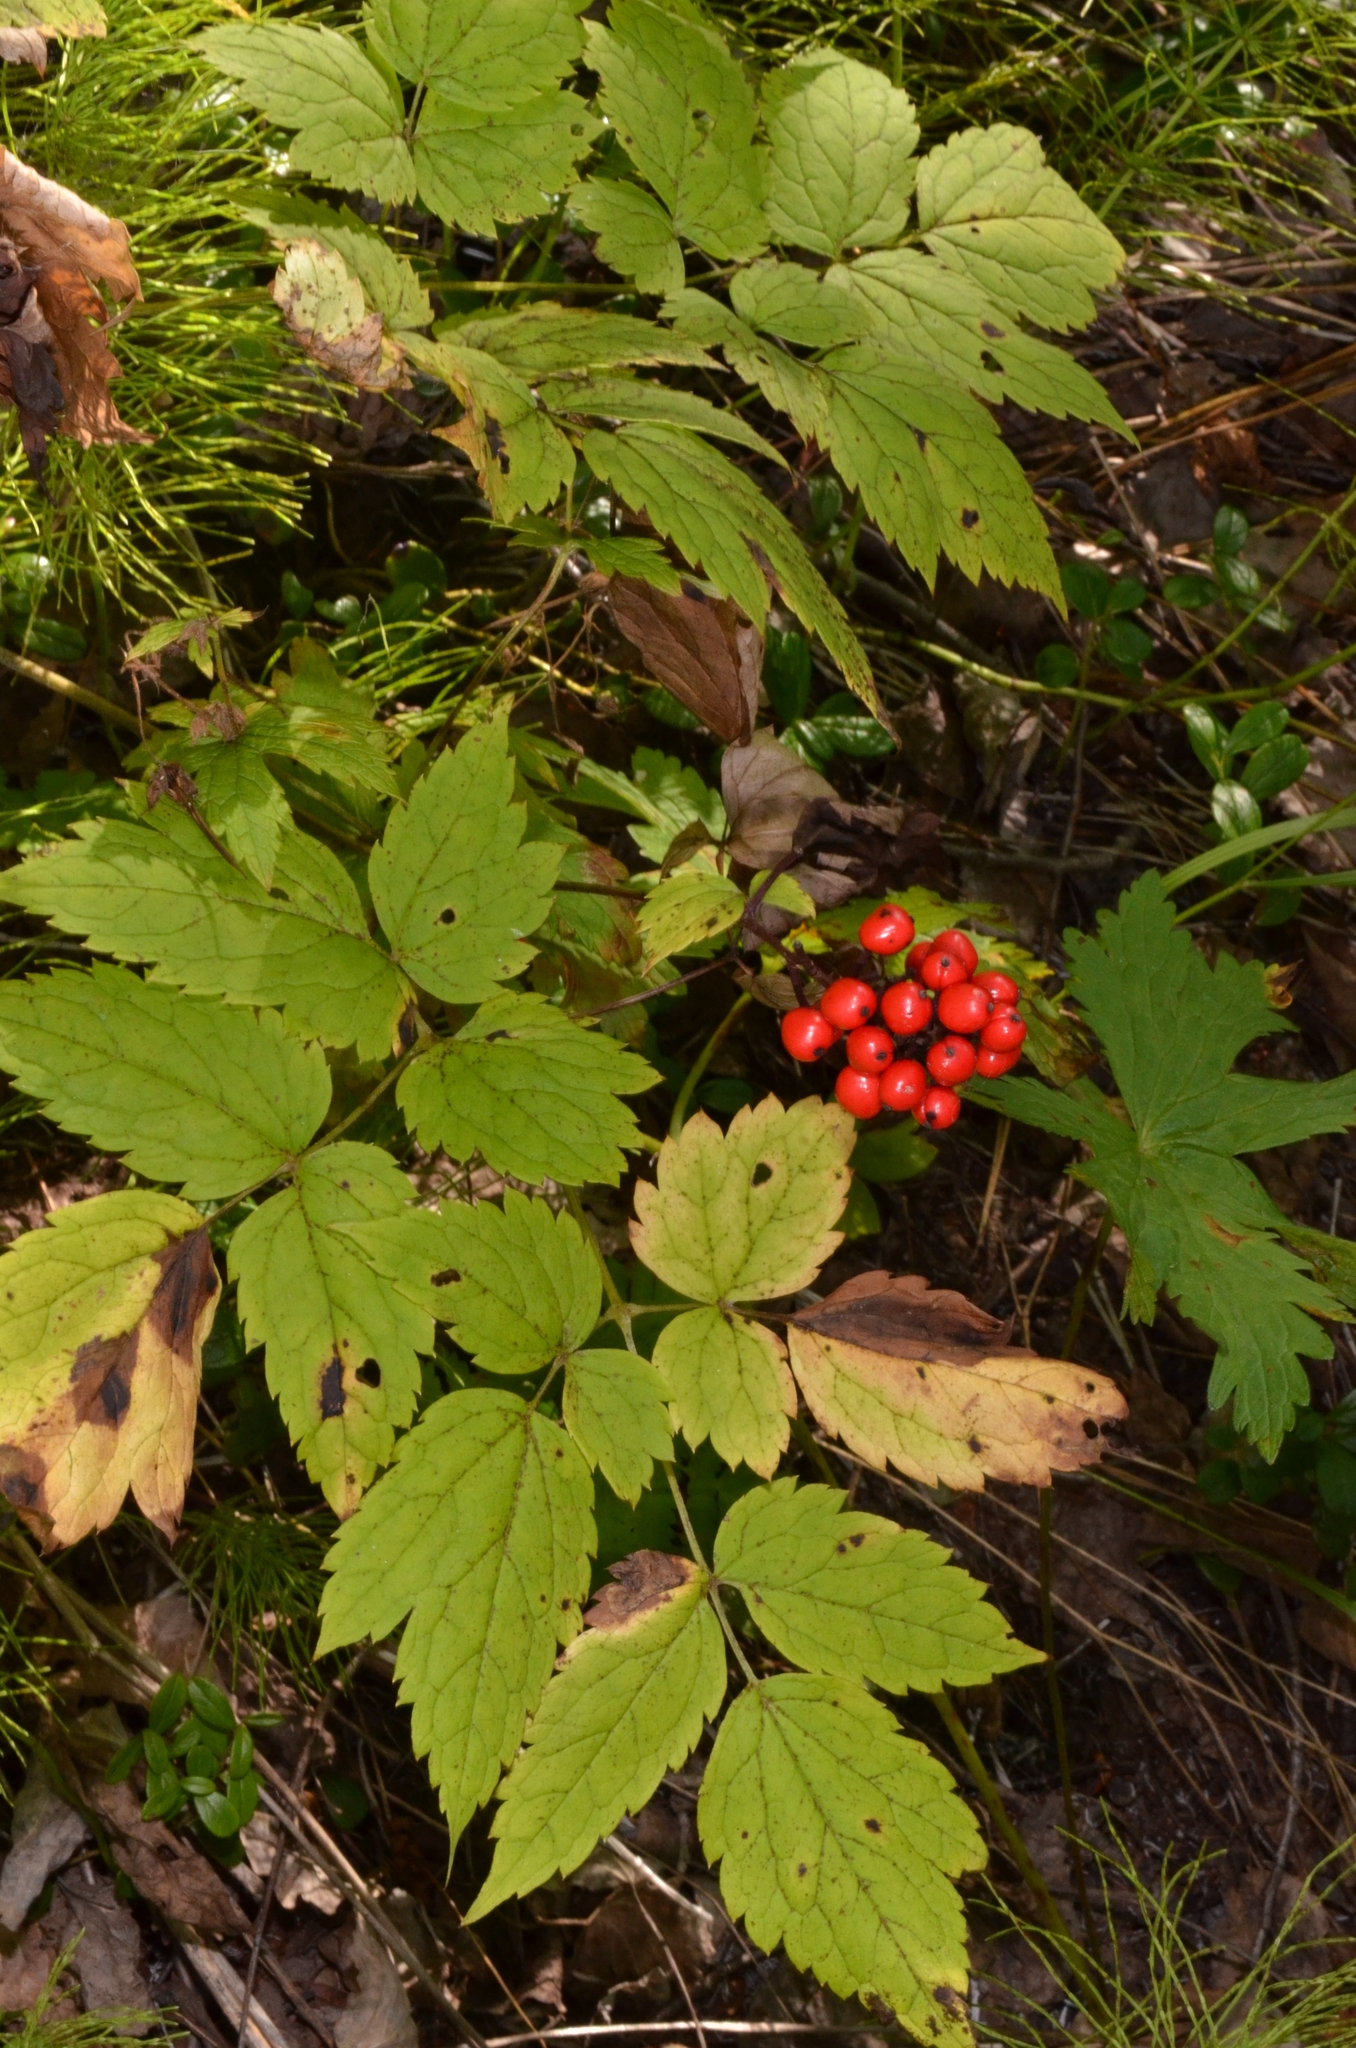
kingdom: Plantae
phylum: Tracheophyta
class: Magnoliopsida
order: Ranunculales
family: Ranunculaceae
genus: Actaea
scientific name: Actaea erythrocarpa
